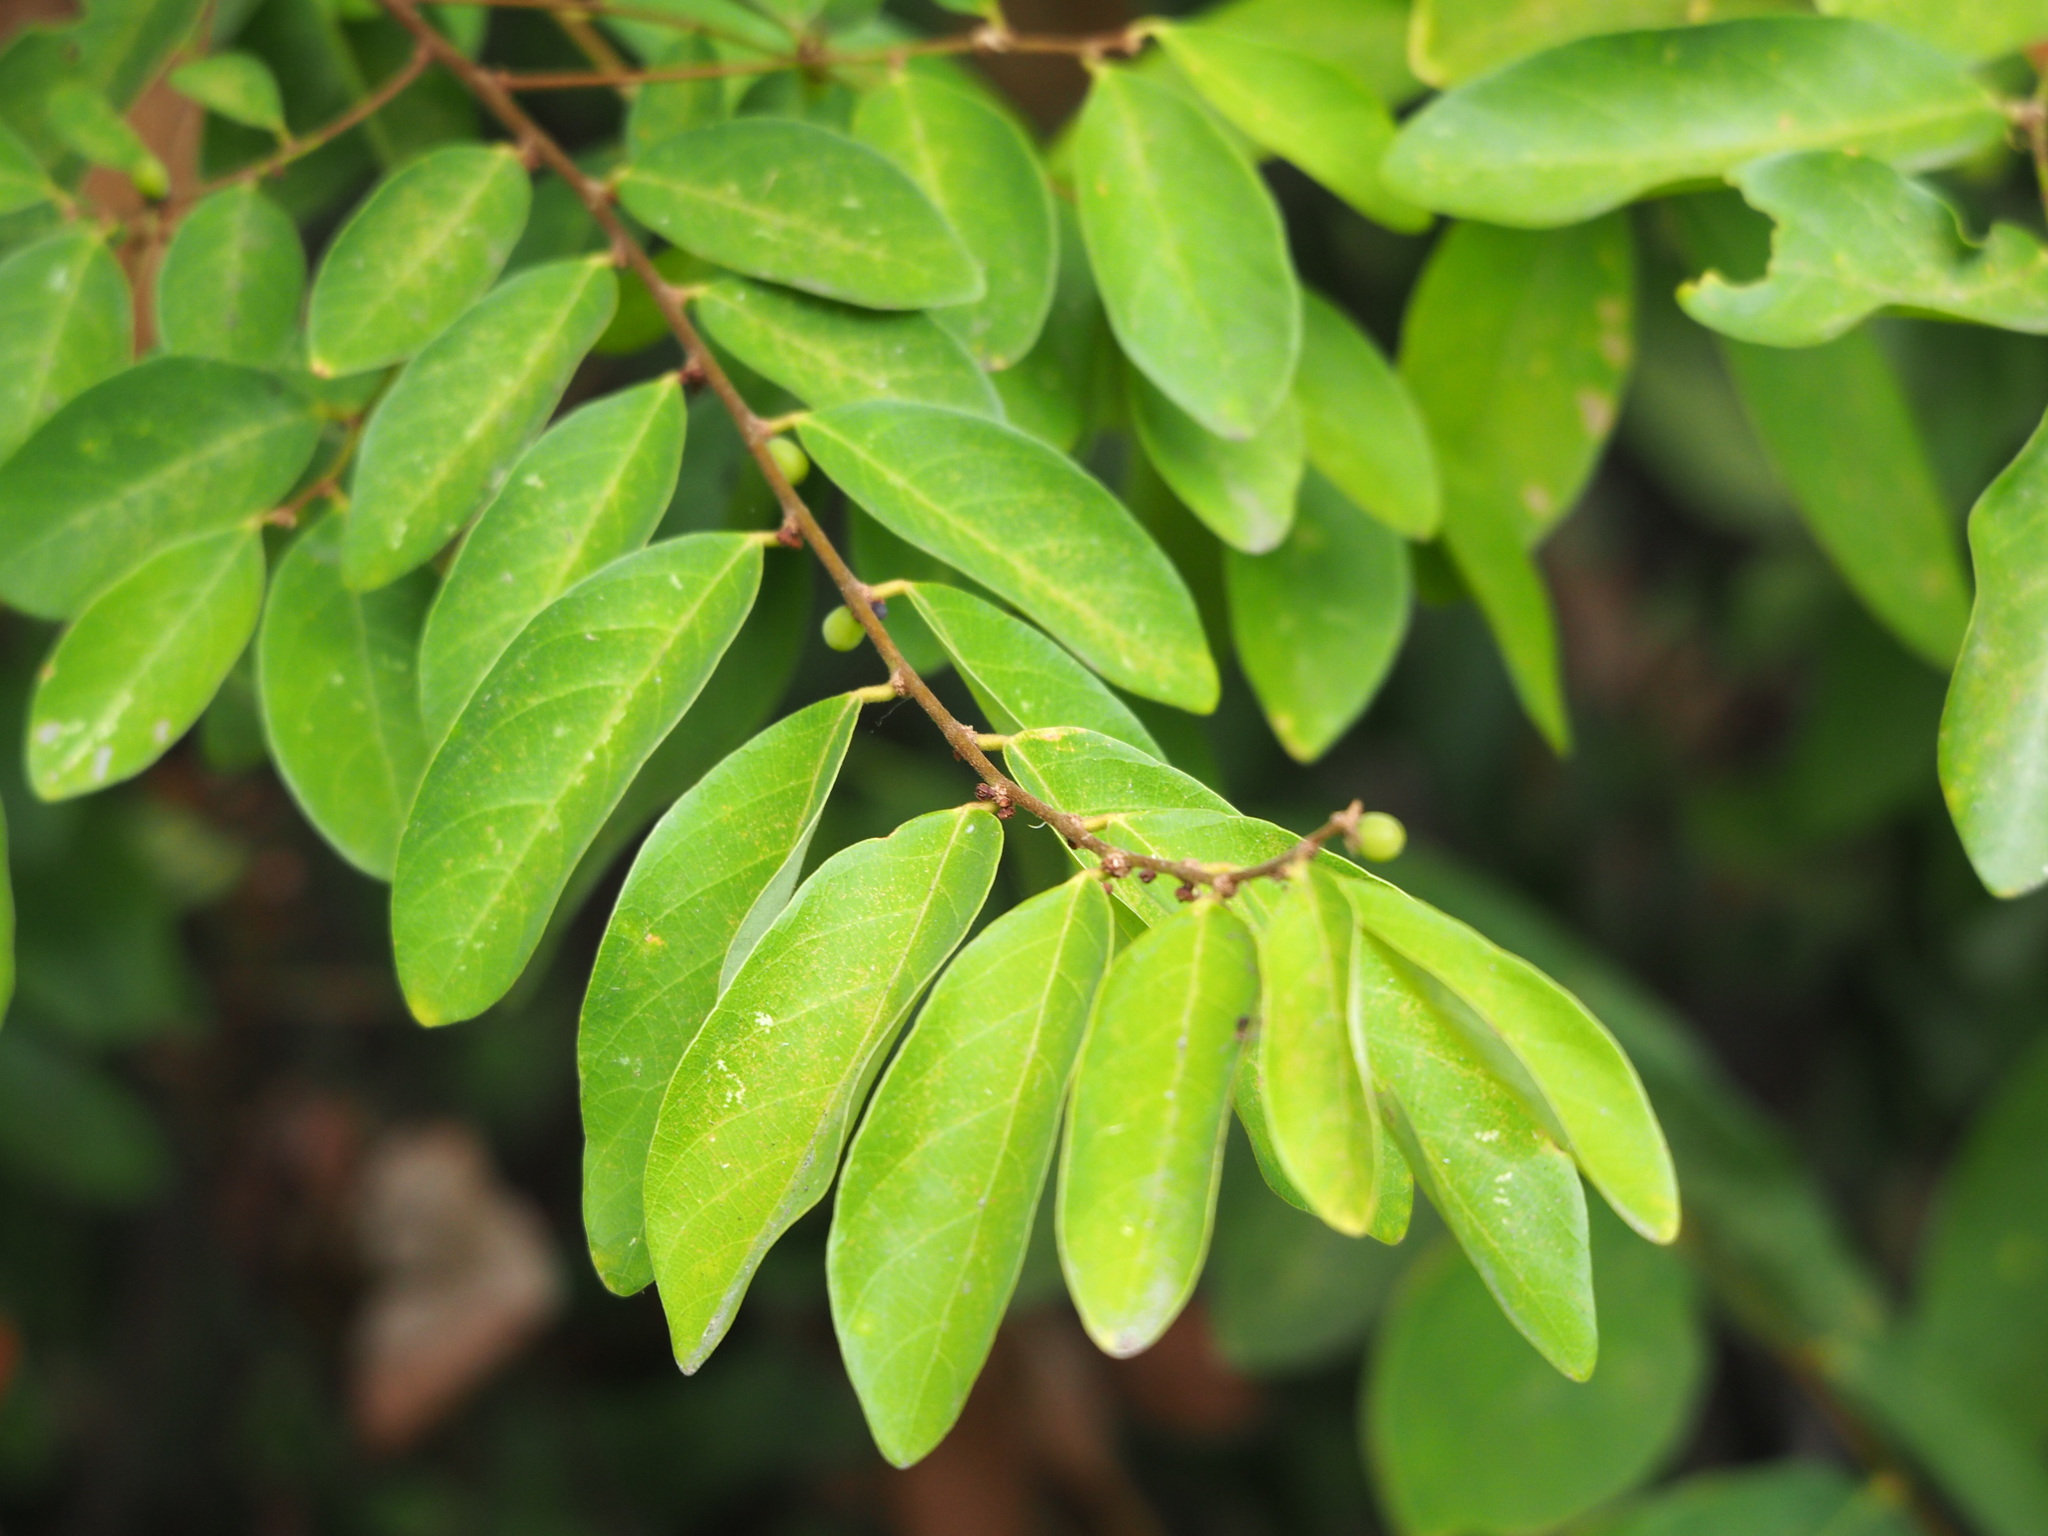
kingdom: Plantae
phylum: Tracheophyta
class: Magnoliopsida
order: Malpighiales
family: Phyllanthaceae
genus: Bridelia
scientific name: Bridelia tomentosa
